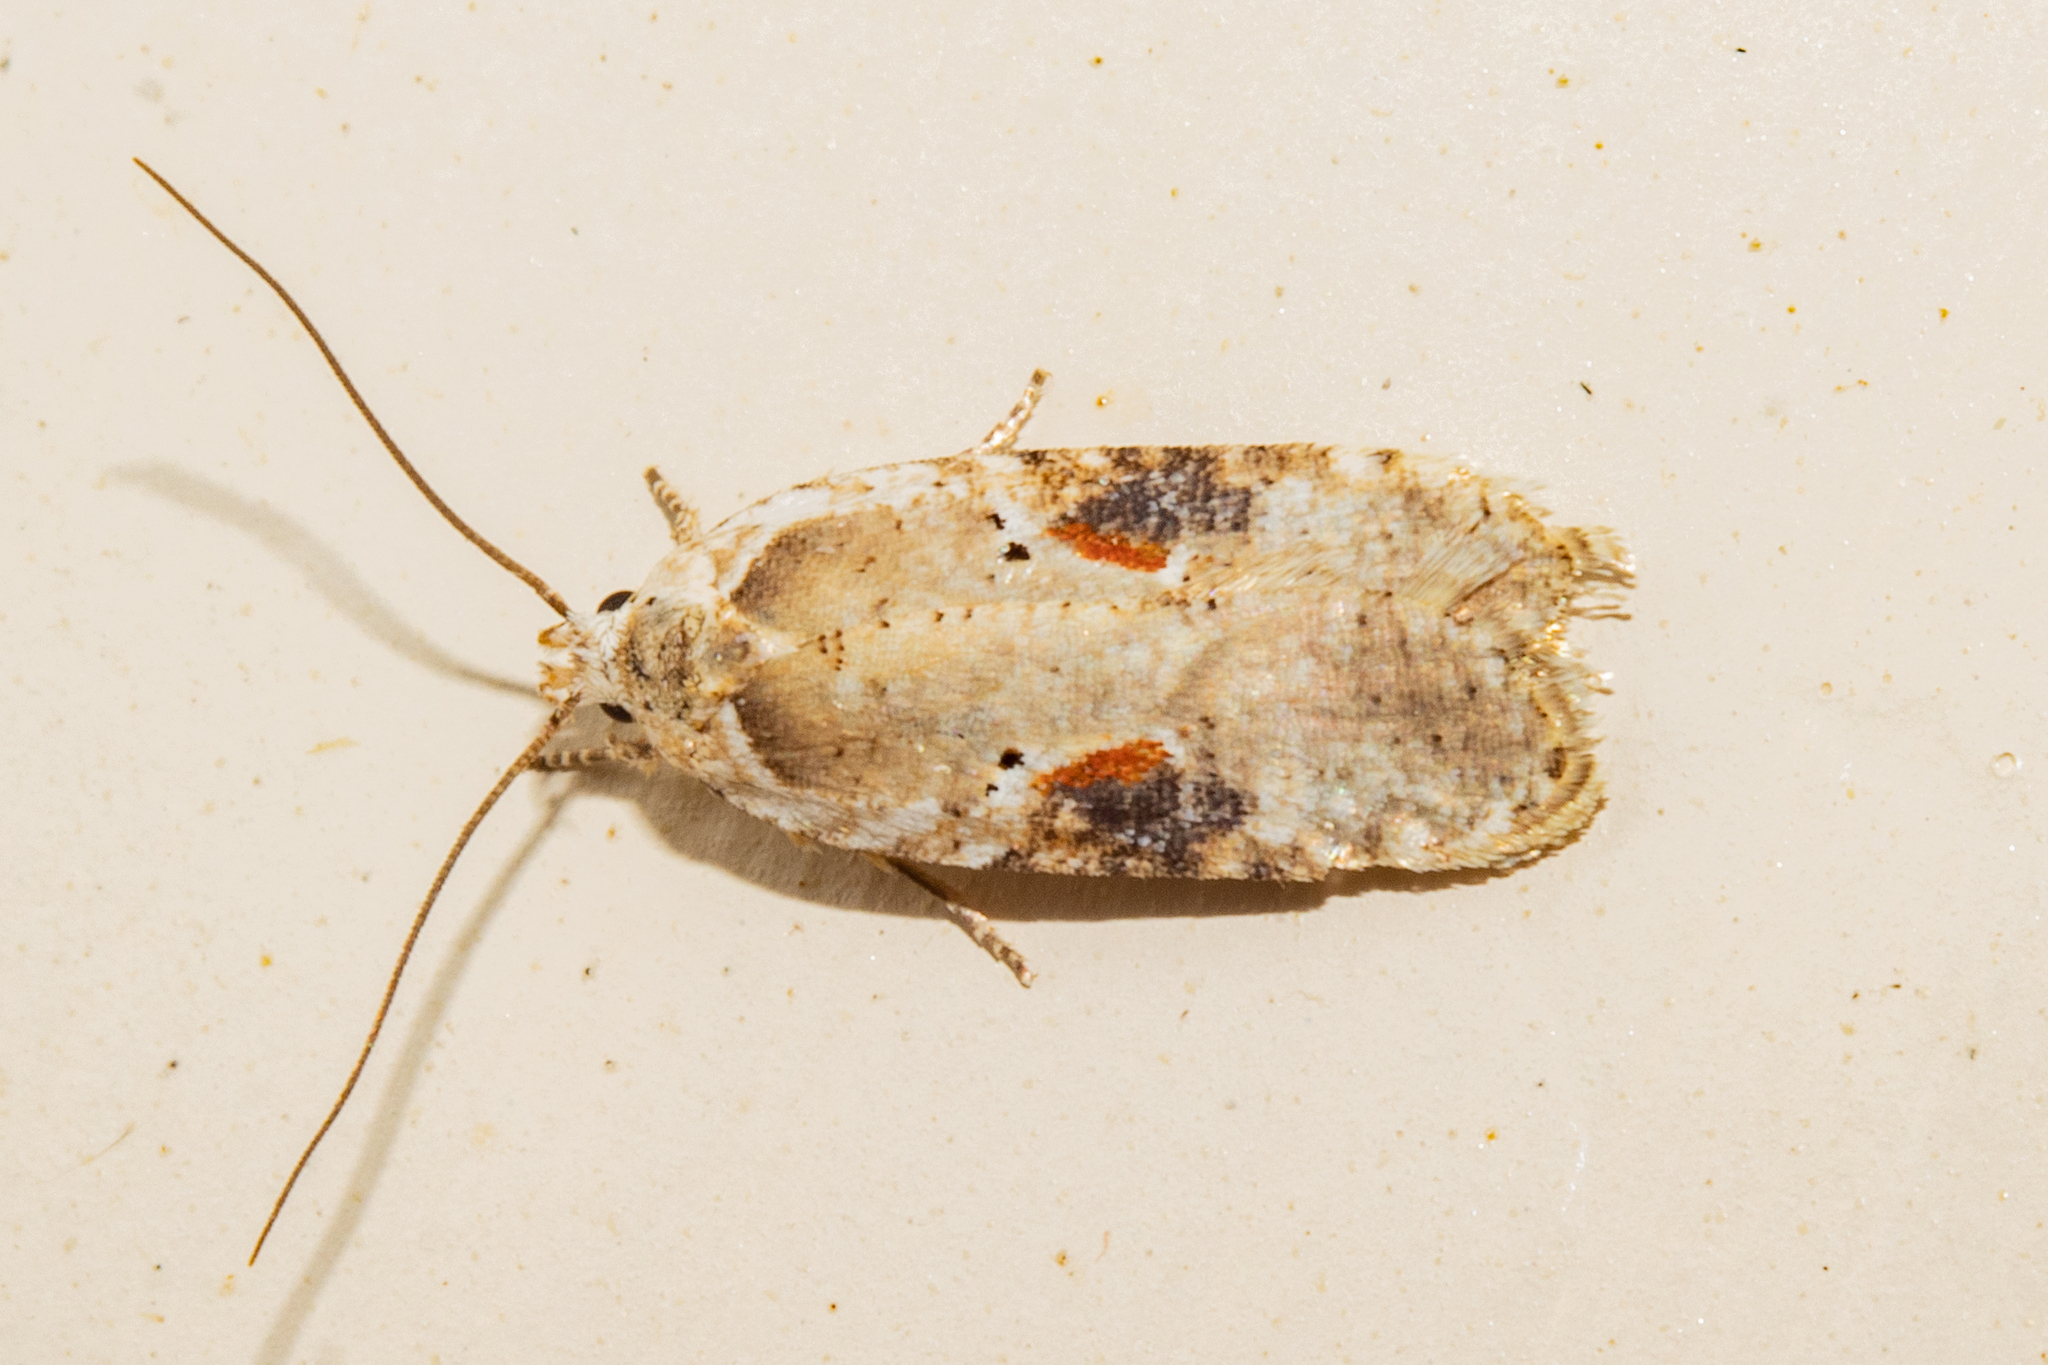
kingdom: Animalia
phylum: Arthropoda
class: Insecta
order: Lepidoptera
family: Depressariidae
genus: Agonopterix
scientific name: Agonopterix alstroemeriana
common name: Moth
